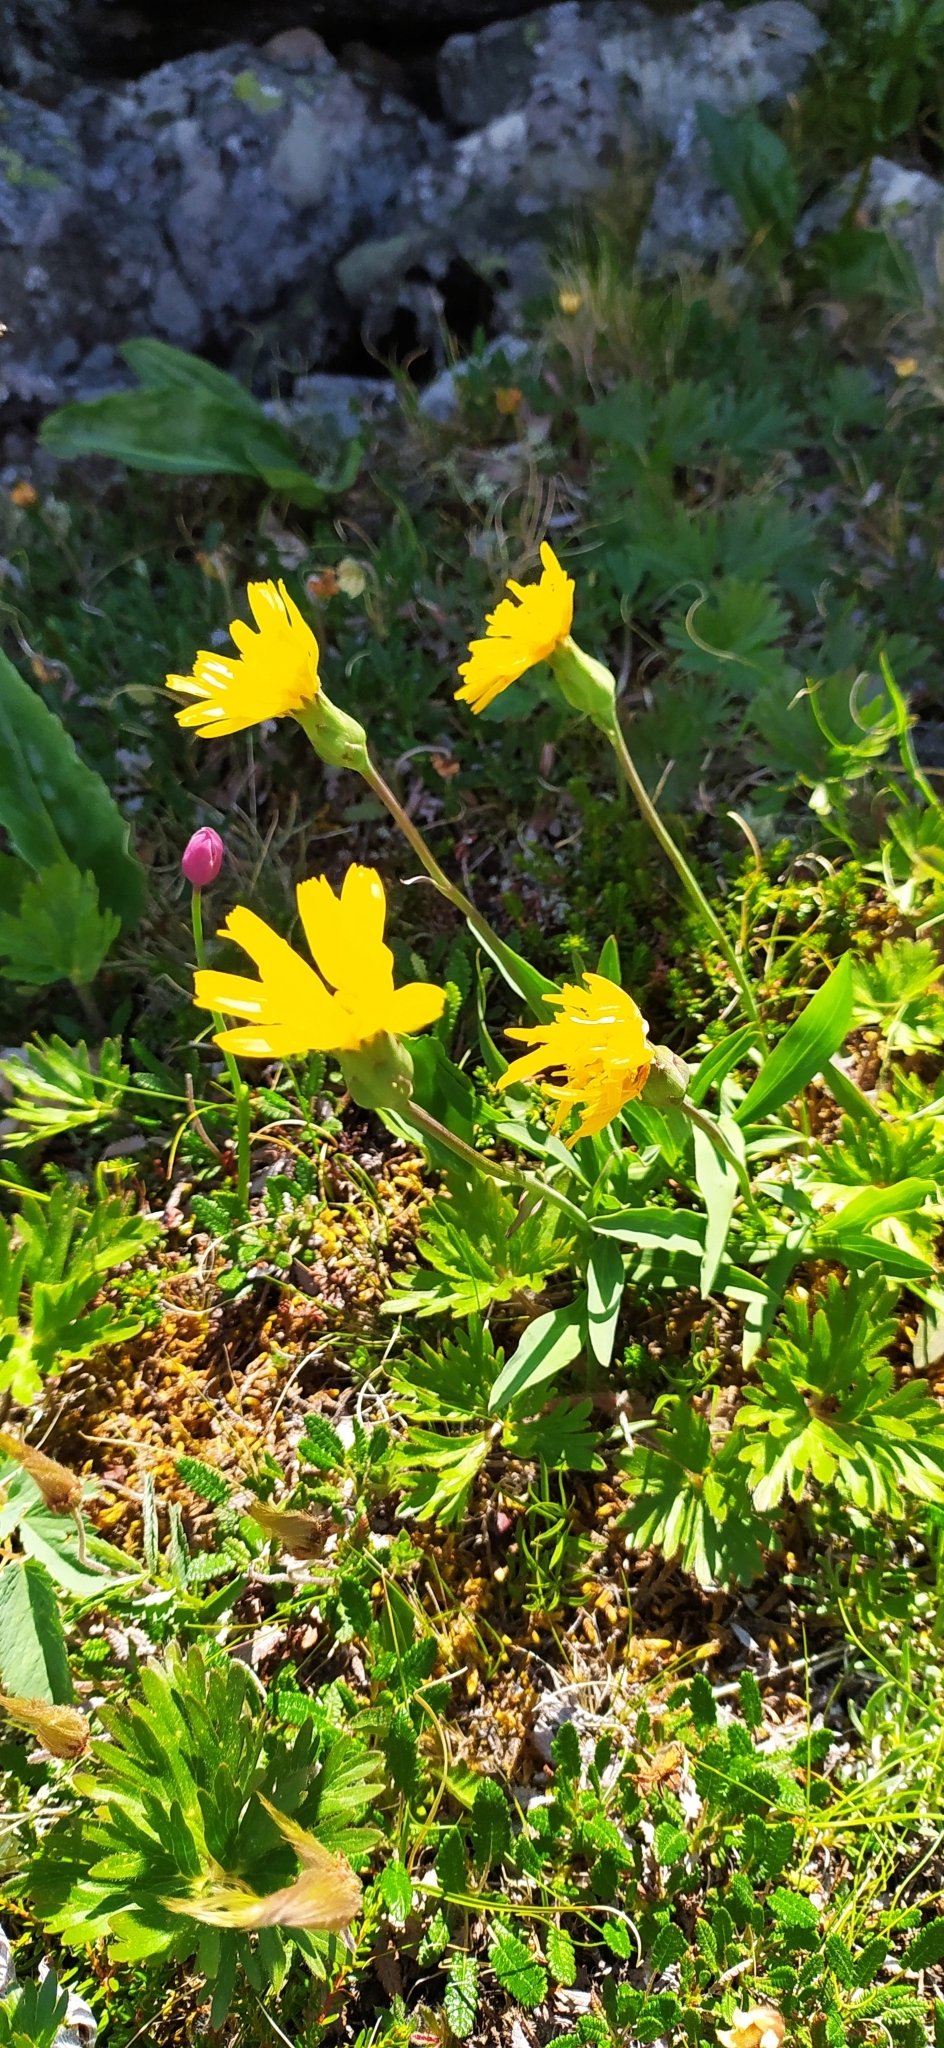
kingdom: Plantae
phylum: Tracheophyta
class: Magnoliopsida
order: Asterales
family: Asteraceae
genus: Scorzonera
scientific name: Scorzonera glabra
